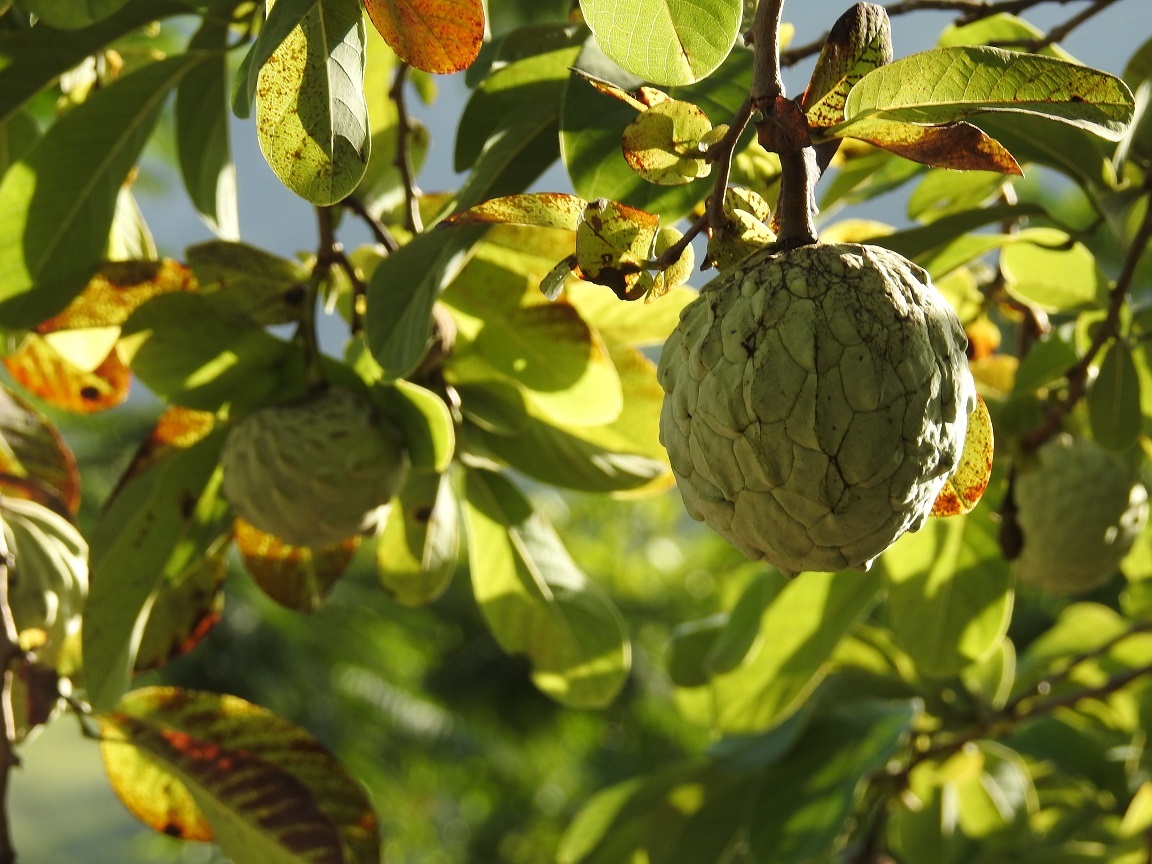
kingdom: Plantae
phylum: Tracheophyta
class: Magnoliopsida
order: Magnoliales
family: Annonaceae
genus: Annona
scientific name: Annona macroprophyllata
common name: Ilama
